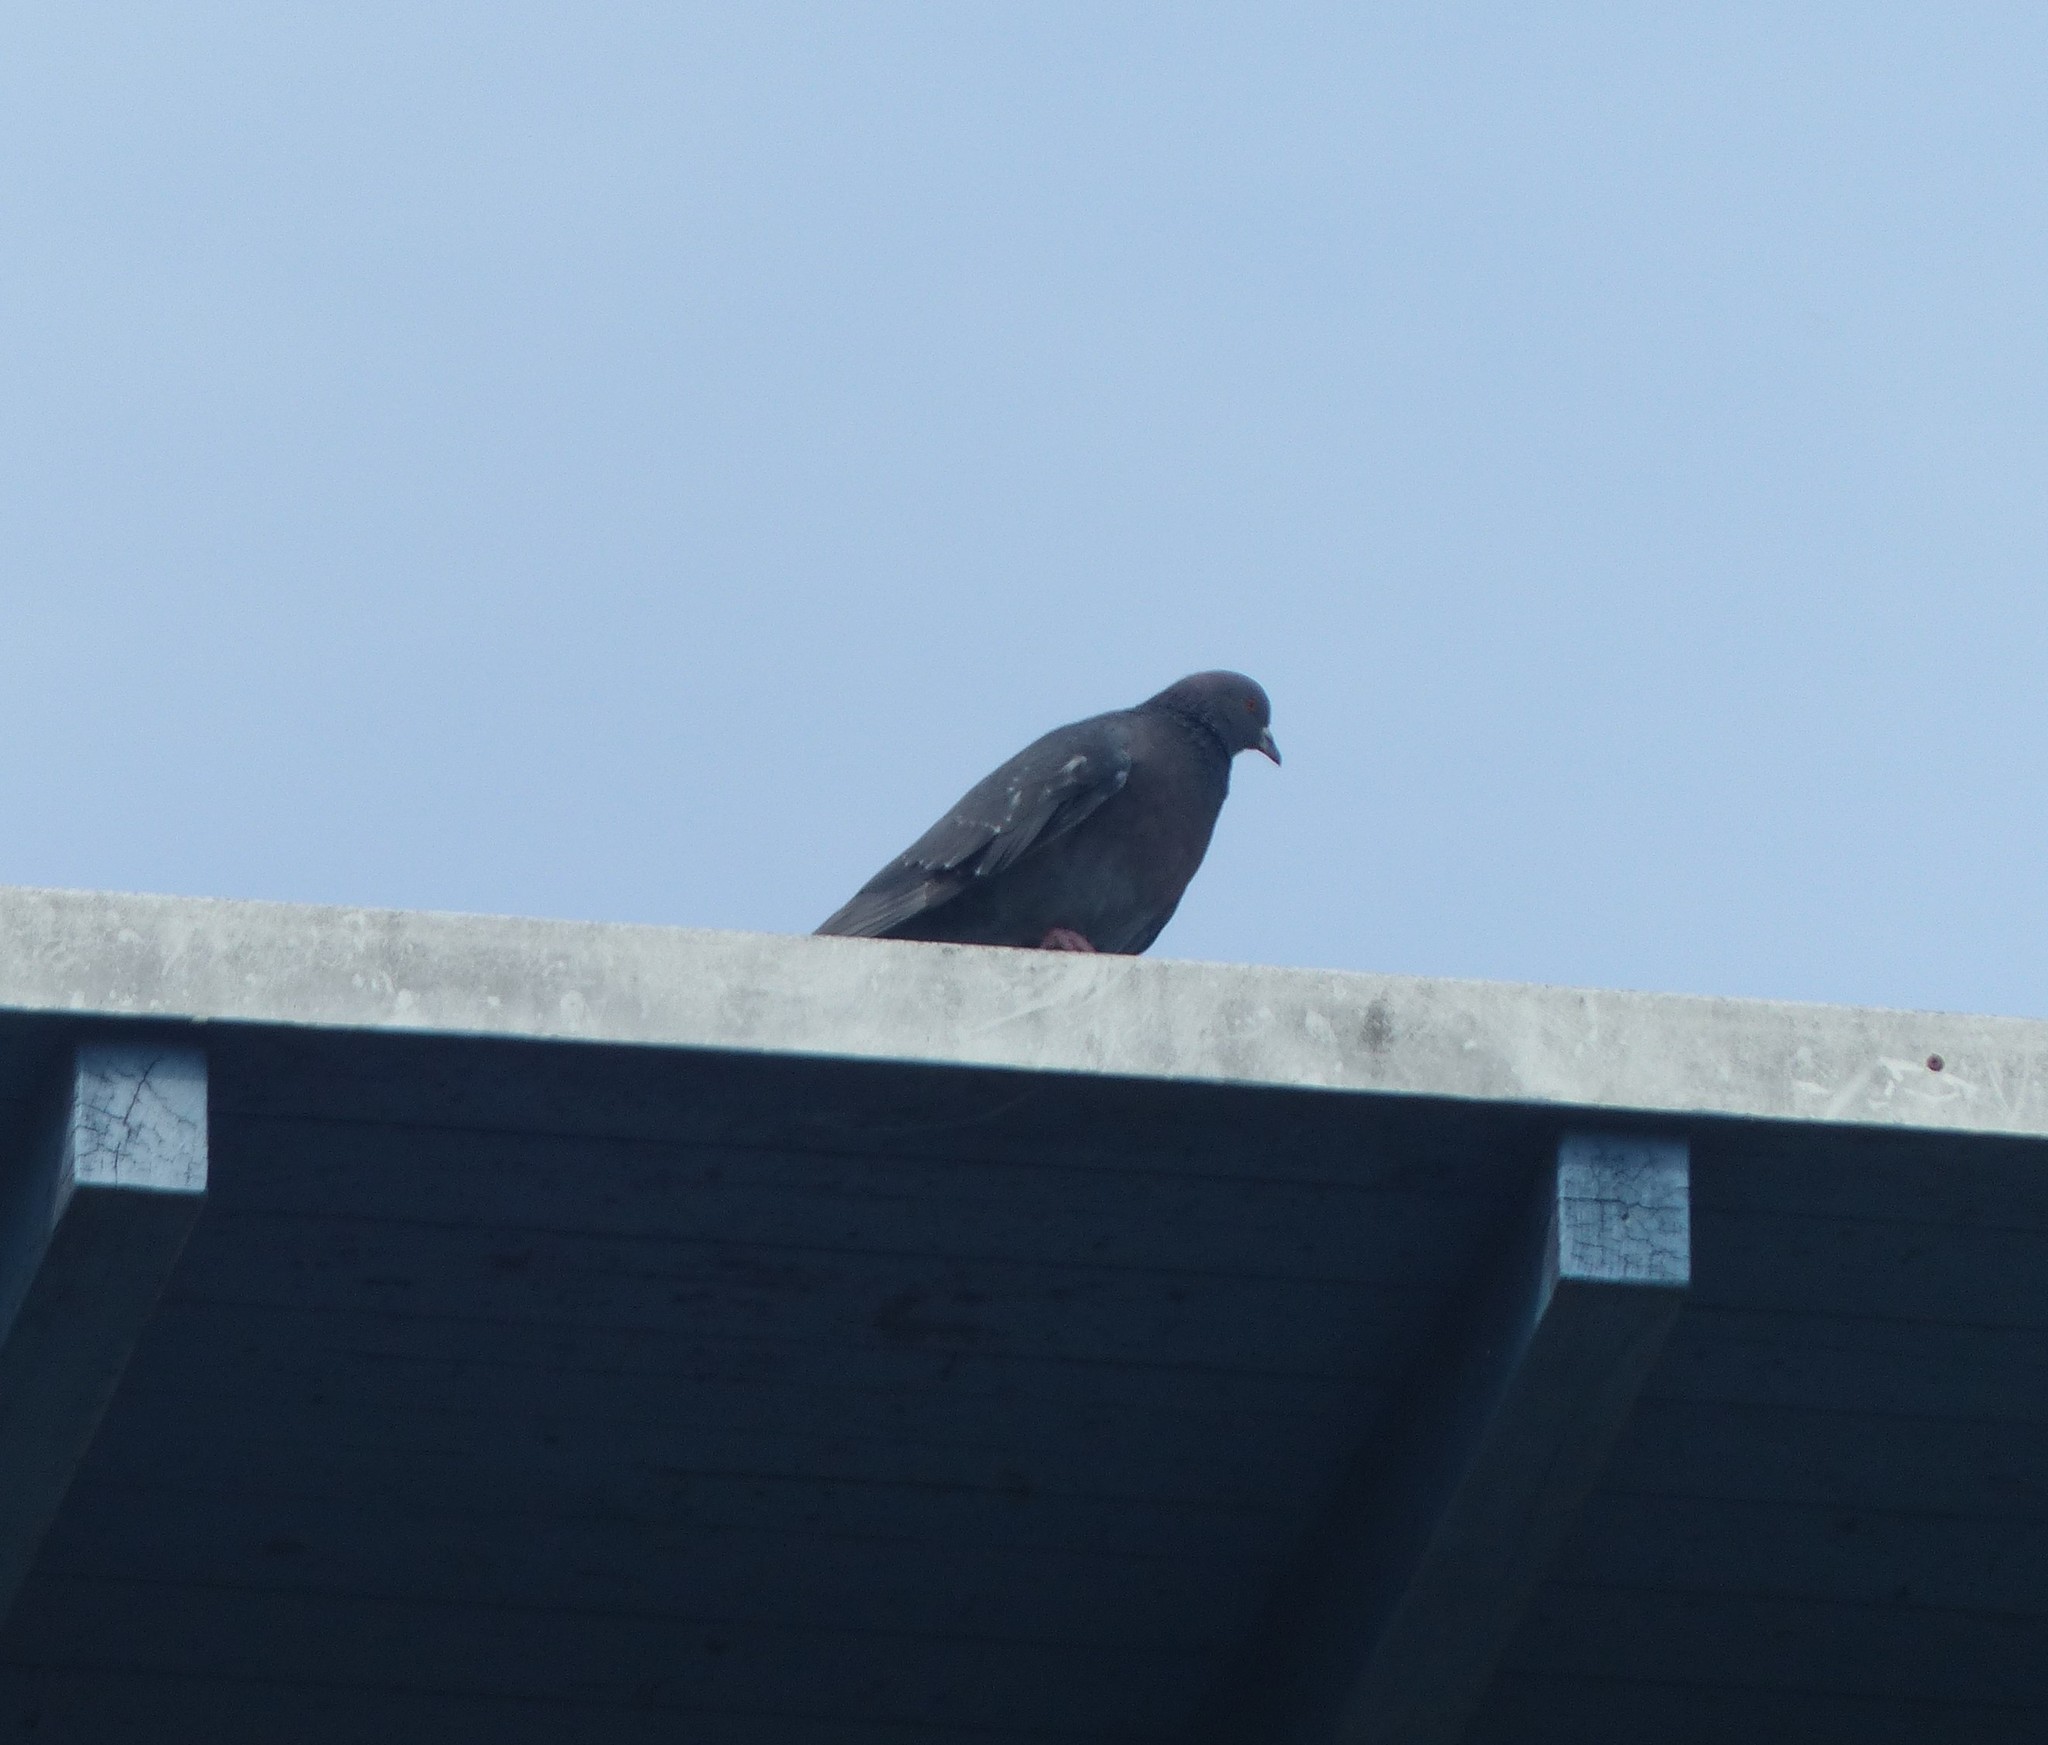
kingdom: Animalia
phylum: Chordata
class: Aves
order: Columbiformes
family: Columbidae
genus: Columba
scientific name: Columba livia
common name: Rock pigeon
